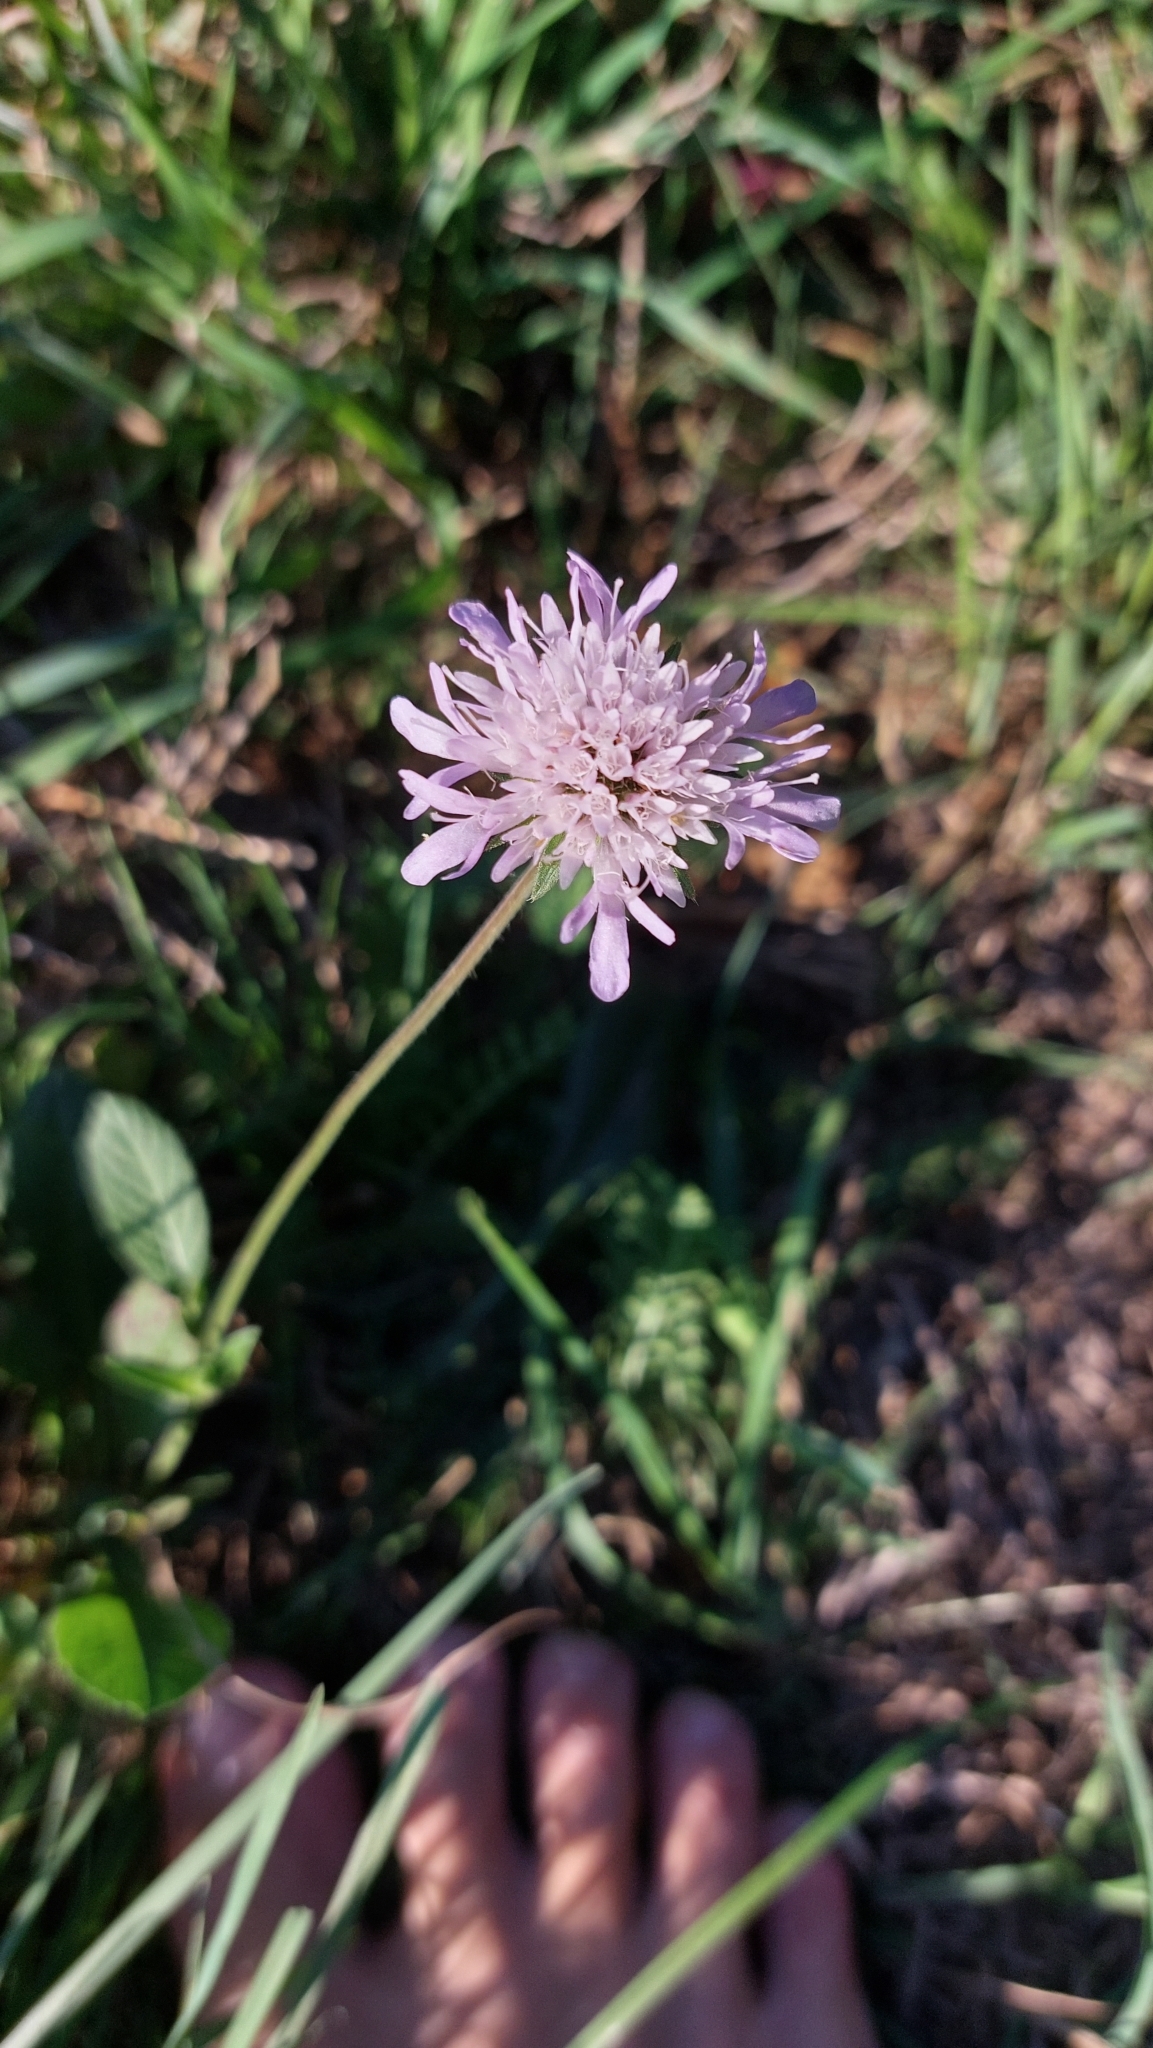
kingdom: Plantae
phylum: Tracheophyta
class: Magnoliopsida
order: Dipsacales
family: Caprifoliaceae
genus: Knautia
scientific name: Knautia arvensis
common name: Field scabiosa
